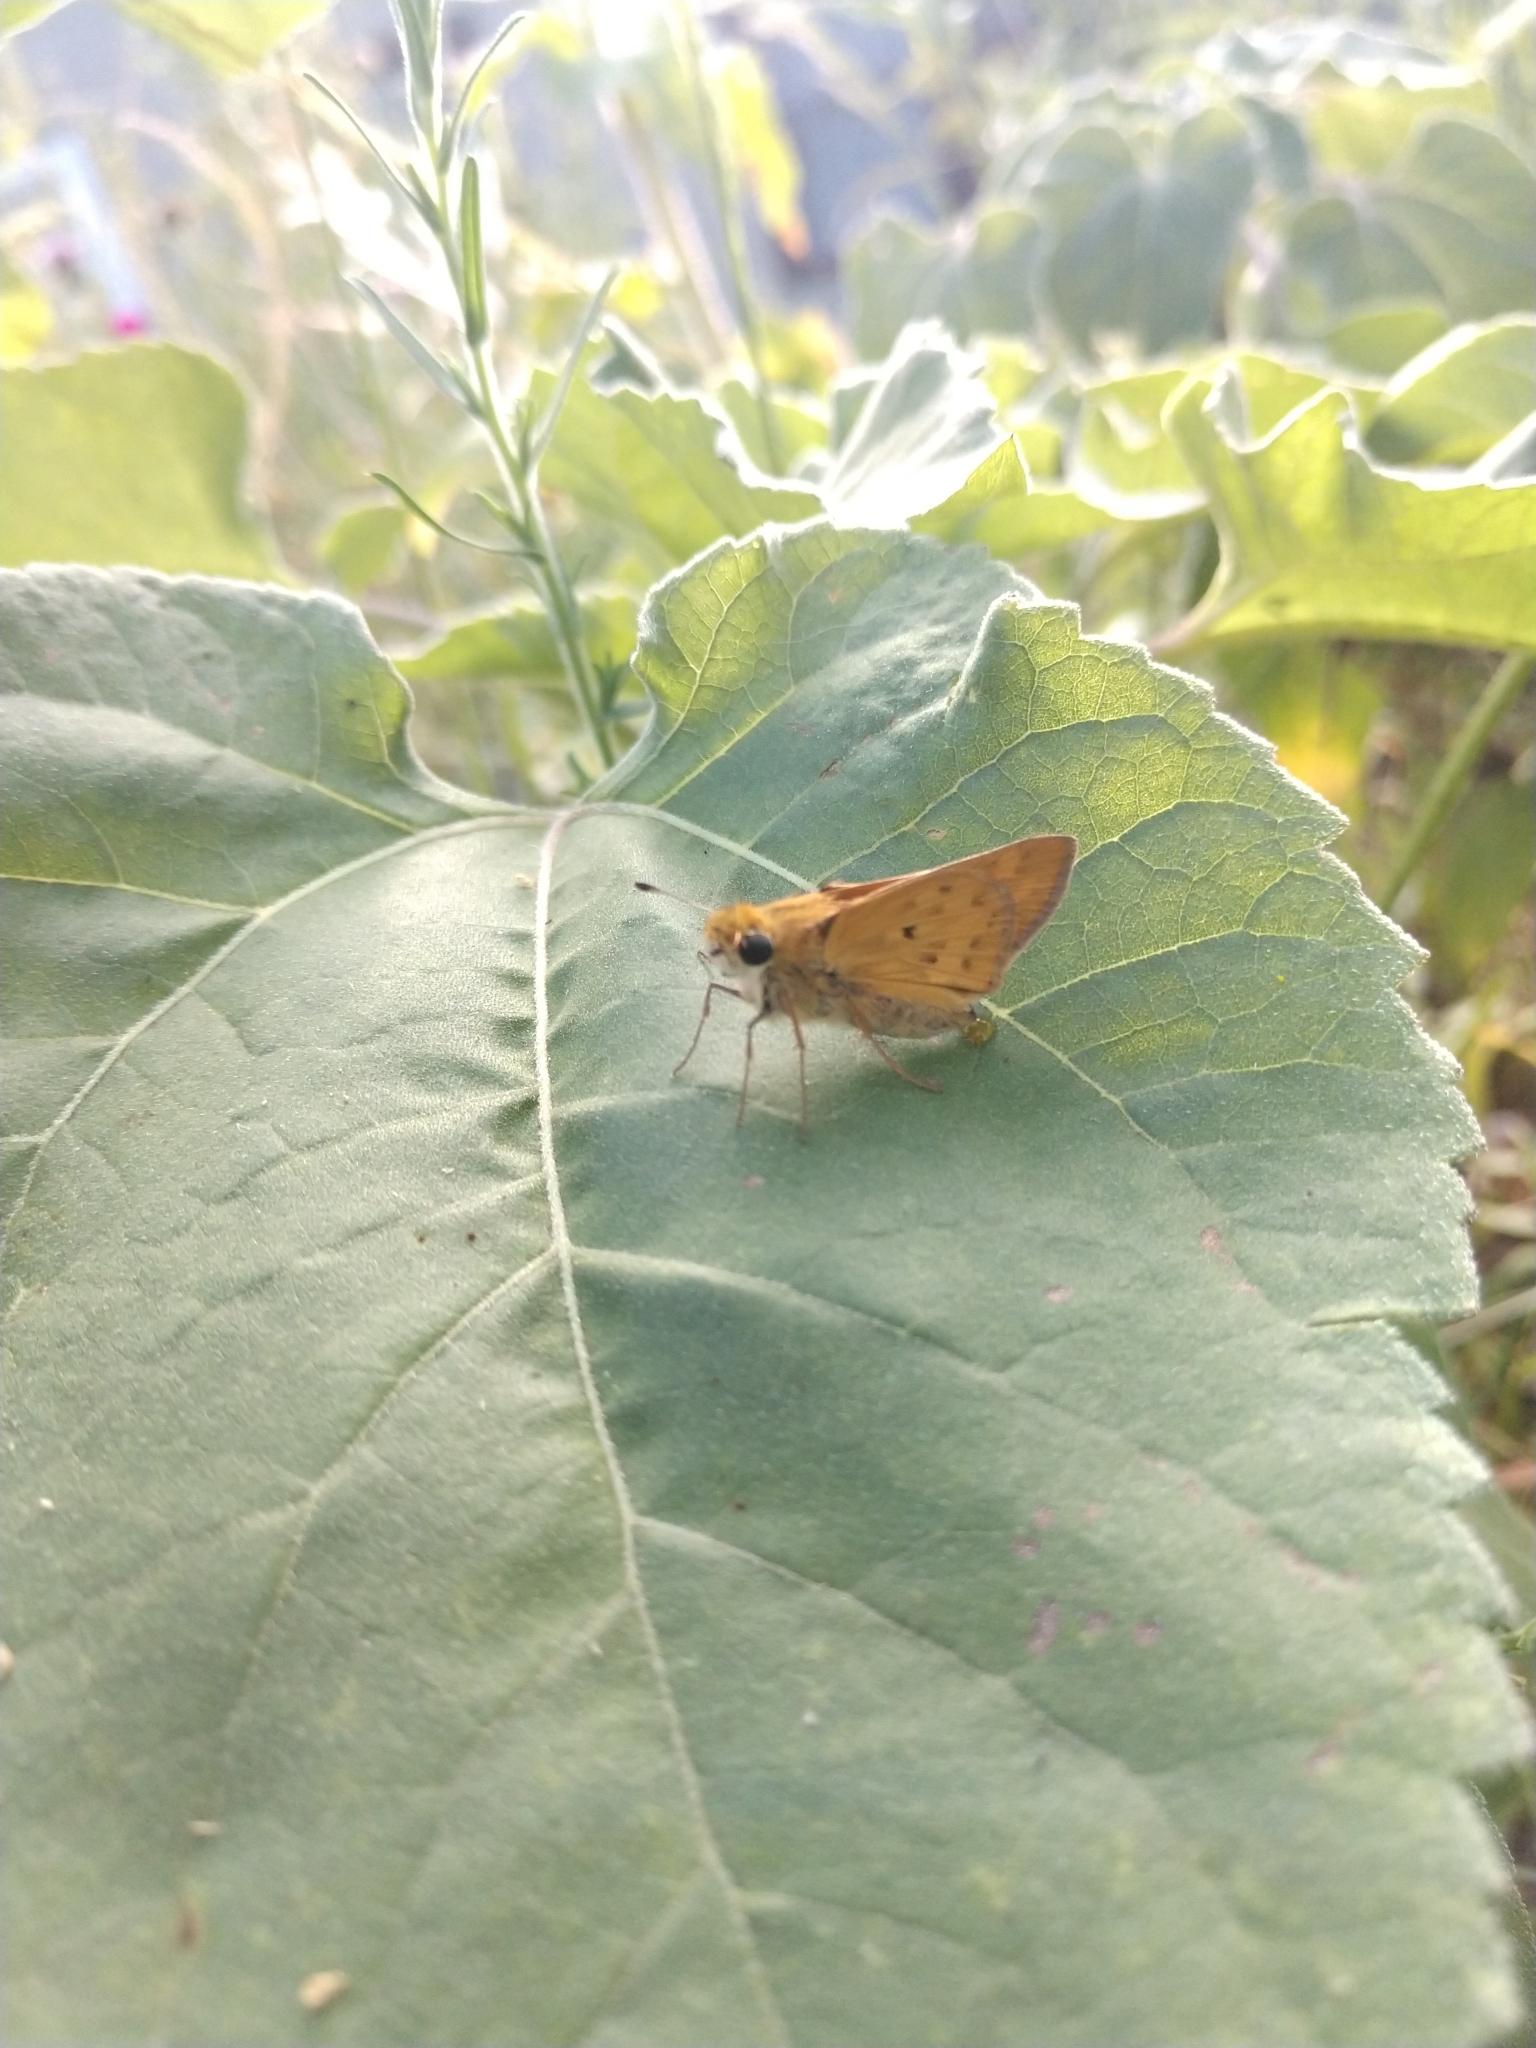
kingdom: Animalia
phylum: Arthropoda
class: Insecta
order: Lepidoptera
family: Hesperiidae
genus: Hylephila
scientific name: Hylephila phyleus
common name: Fiery skipper
